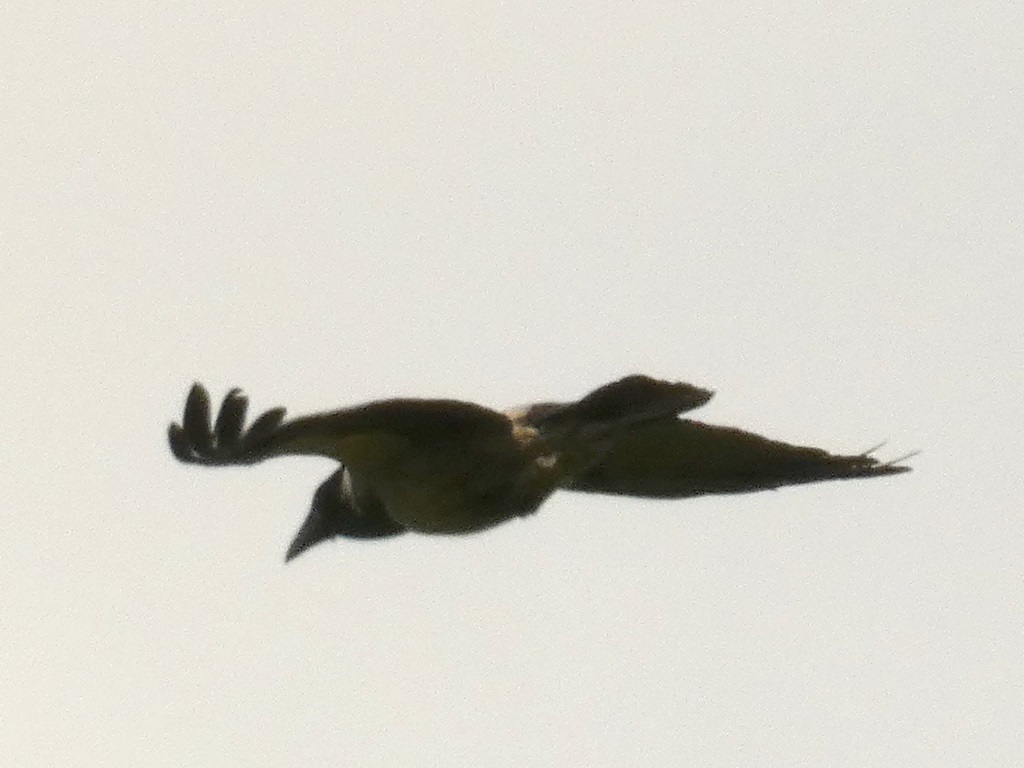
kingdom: Animalia
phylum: Chordata
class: Aves
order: Passeriformes
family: Corvidae
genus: Corvus
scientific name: Corvus cornix
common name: Hooded crow
